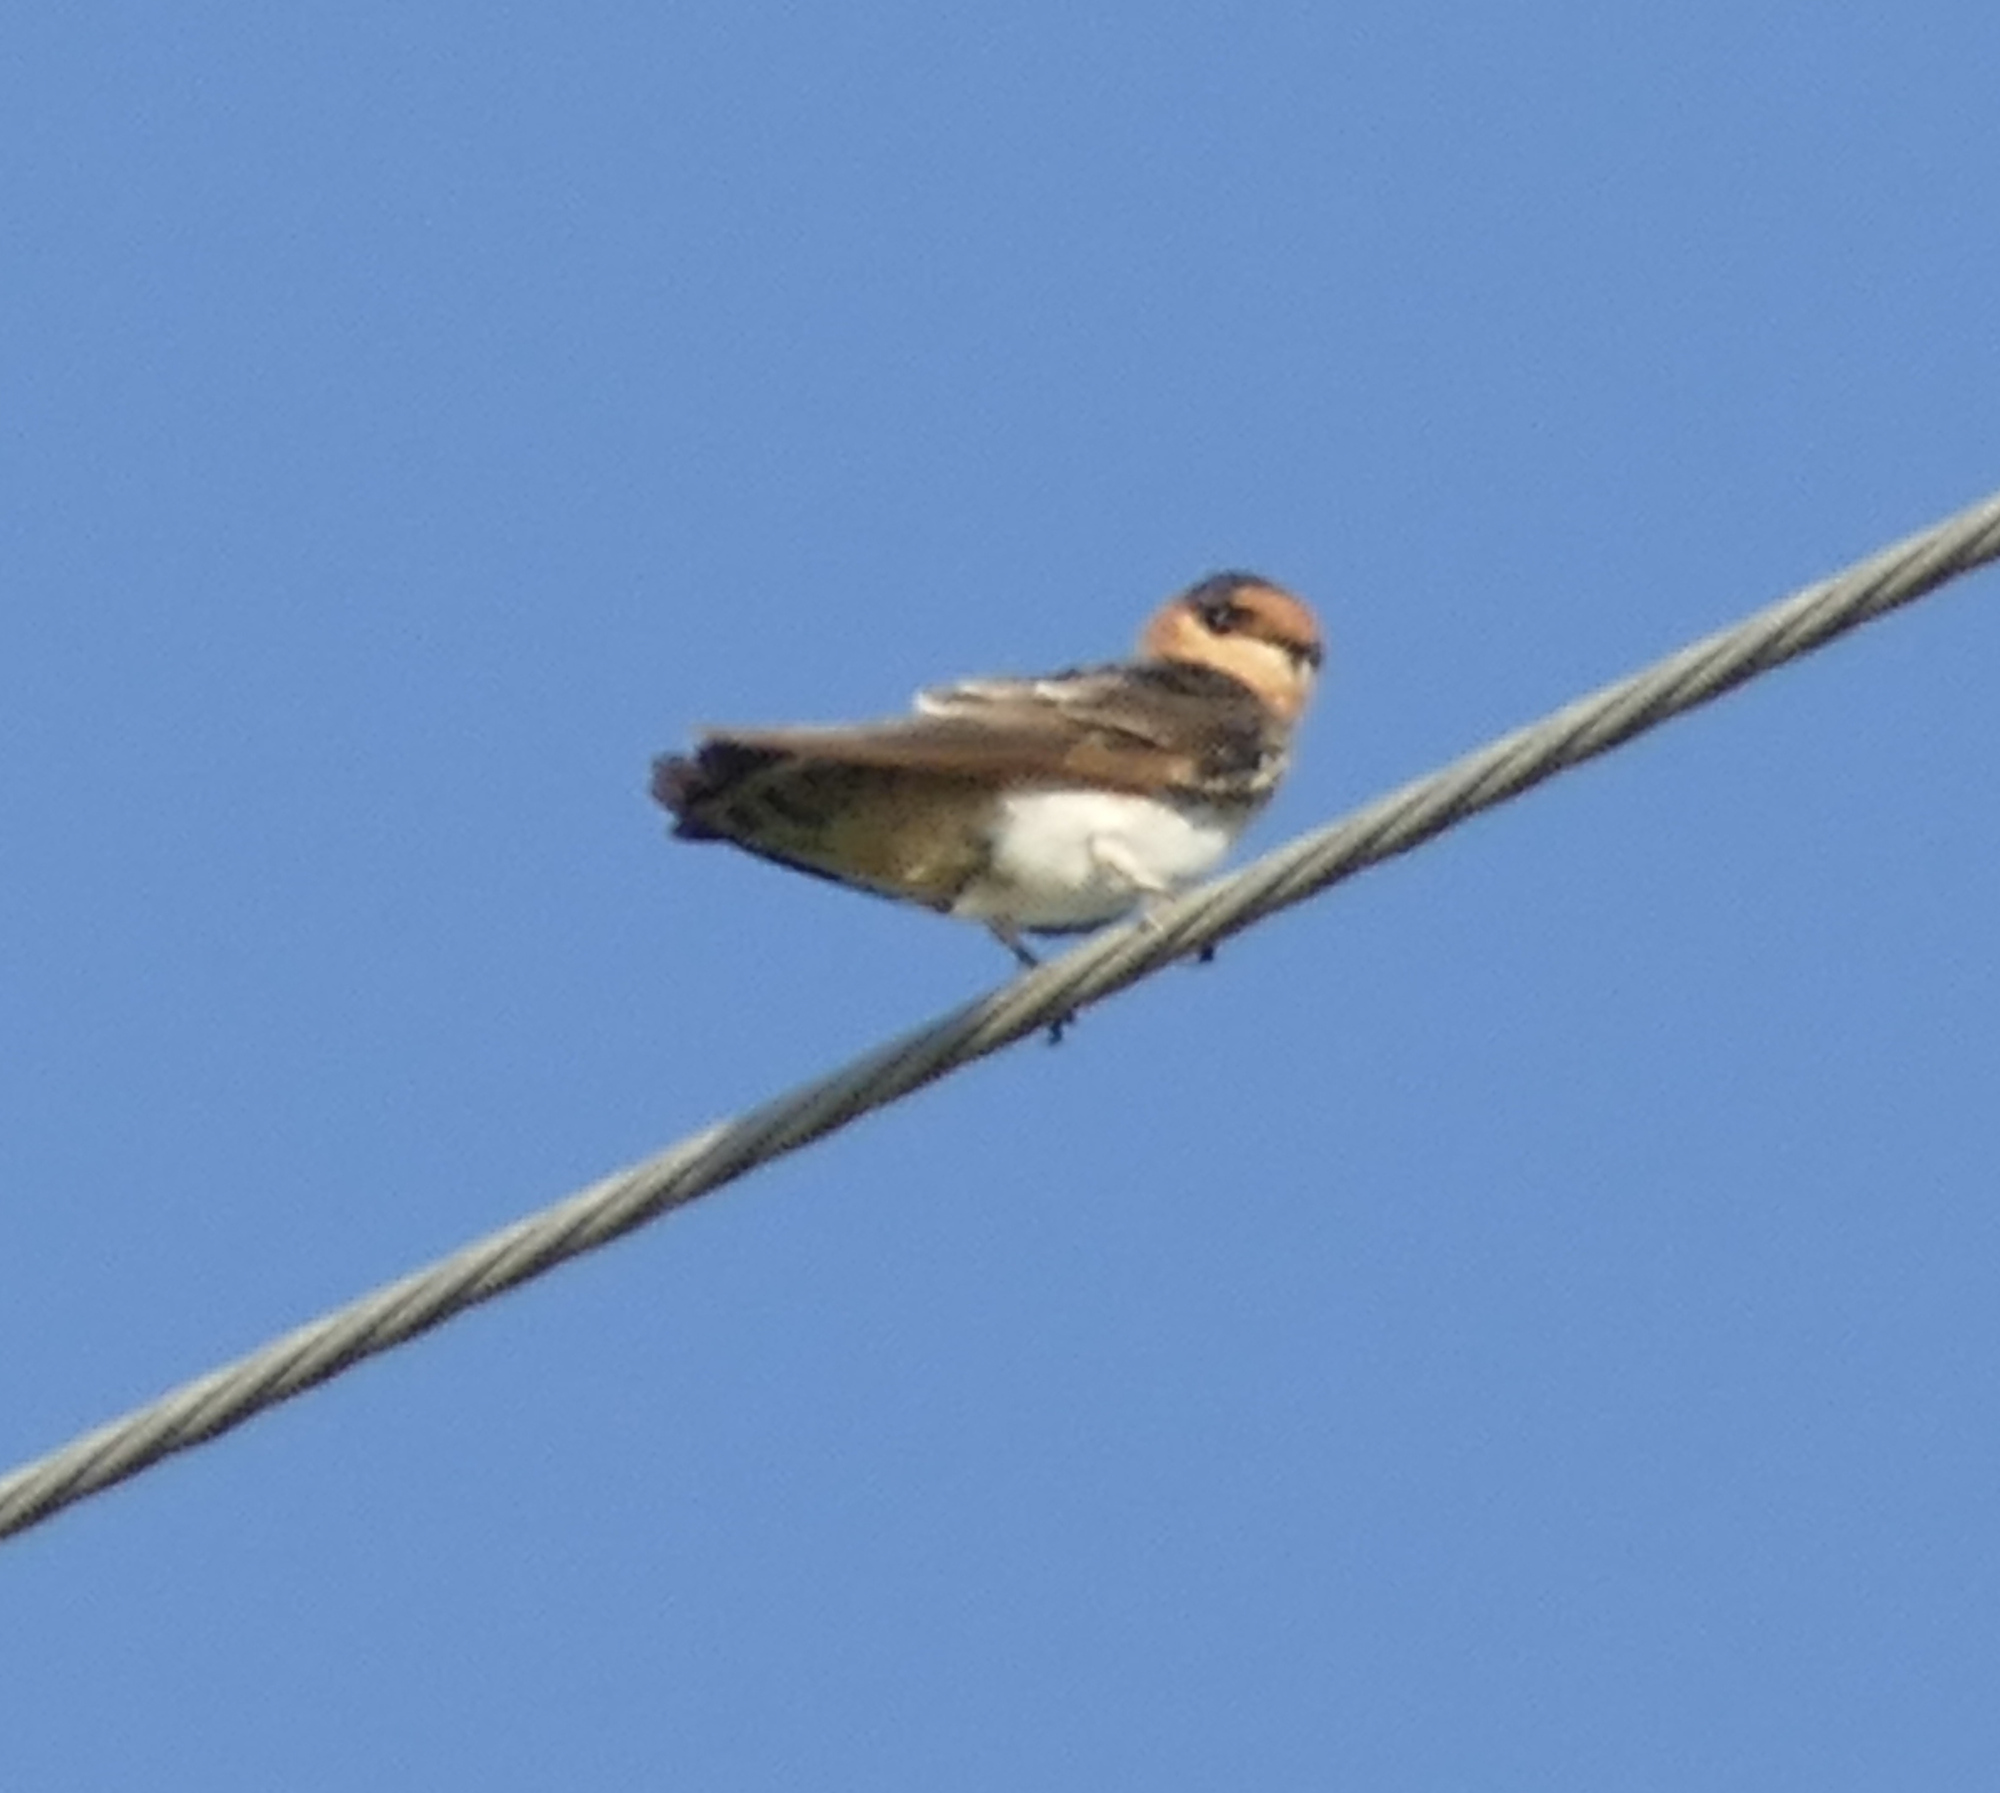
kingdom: Animalia
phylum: Chordata
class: Aves
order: Passeriformes
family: Hirundinidae
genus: Petrochelidon
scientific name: Petrochelidon fulva
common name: Cave swallow
